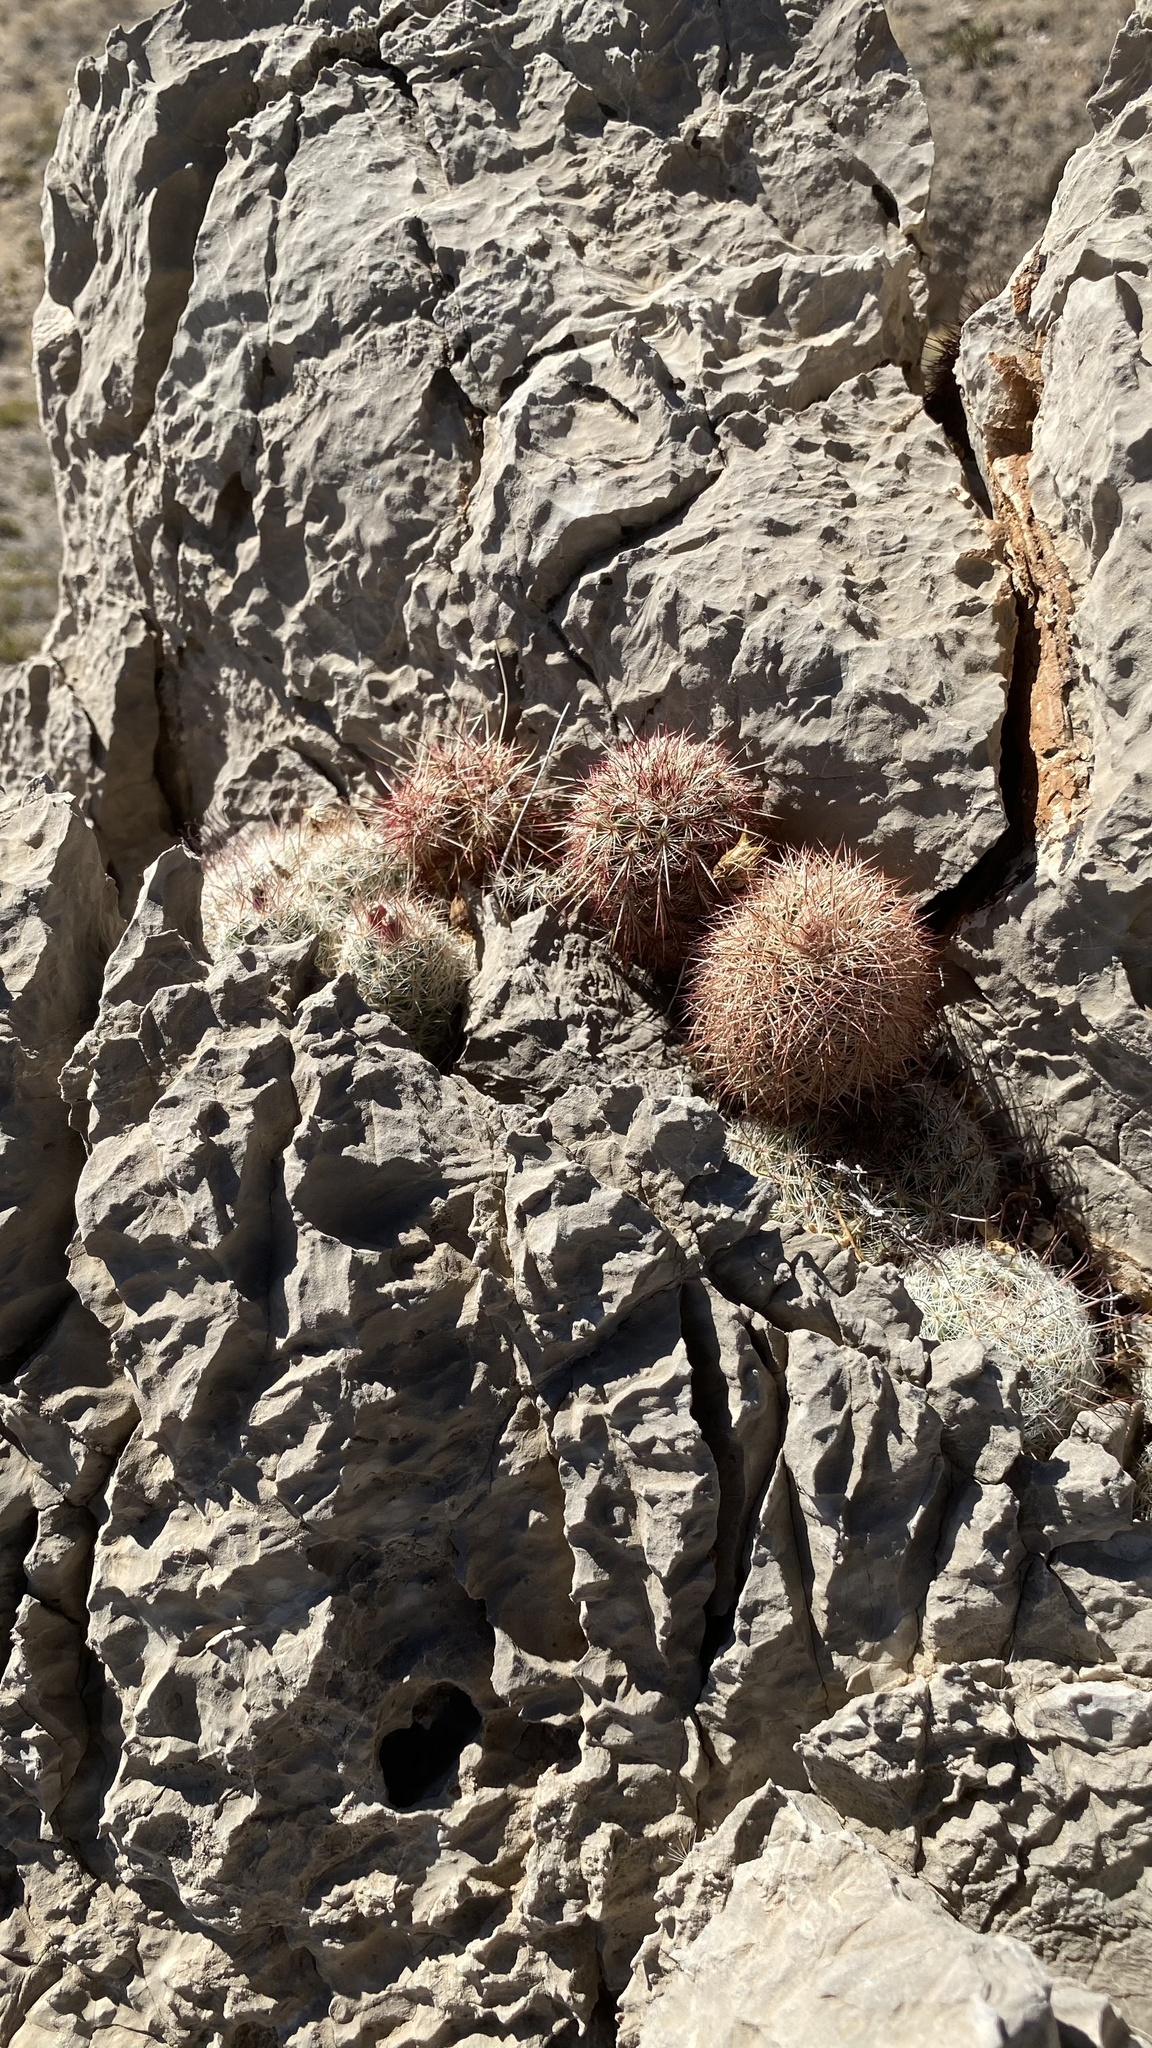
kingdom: Plantae
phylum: Tracheophyta
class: Magnoliopsida
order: Caryophyllales
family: Cactaceae
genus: Echinocereus
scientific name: Echinocereus viridiflorus
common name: Nylon hedgehog cactus
